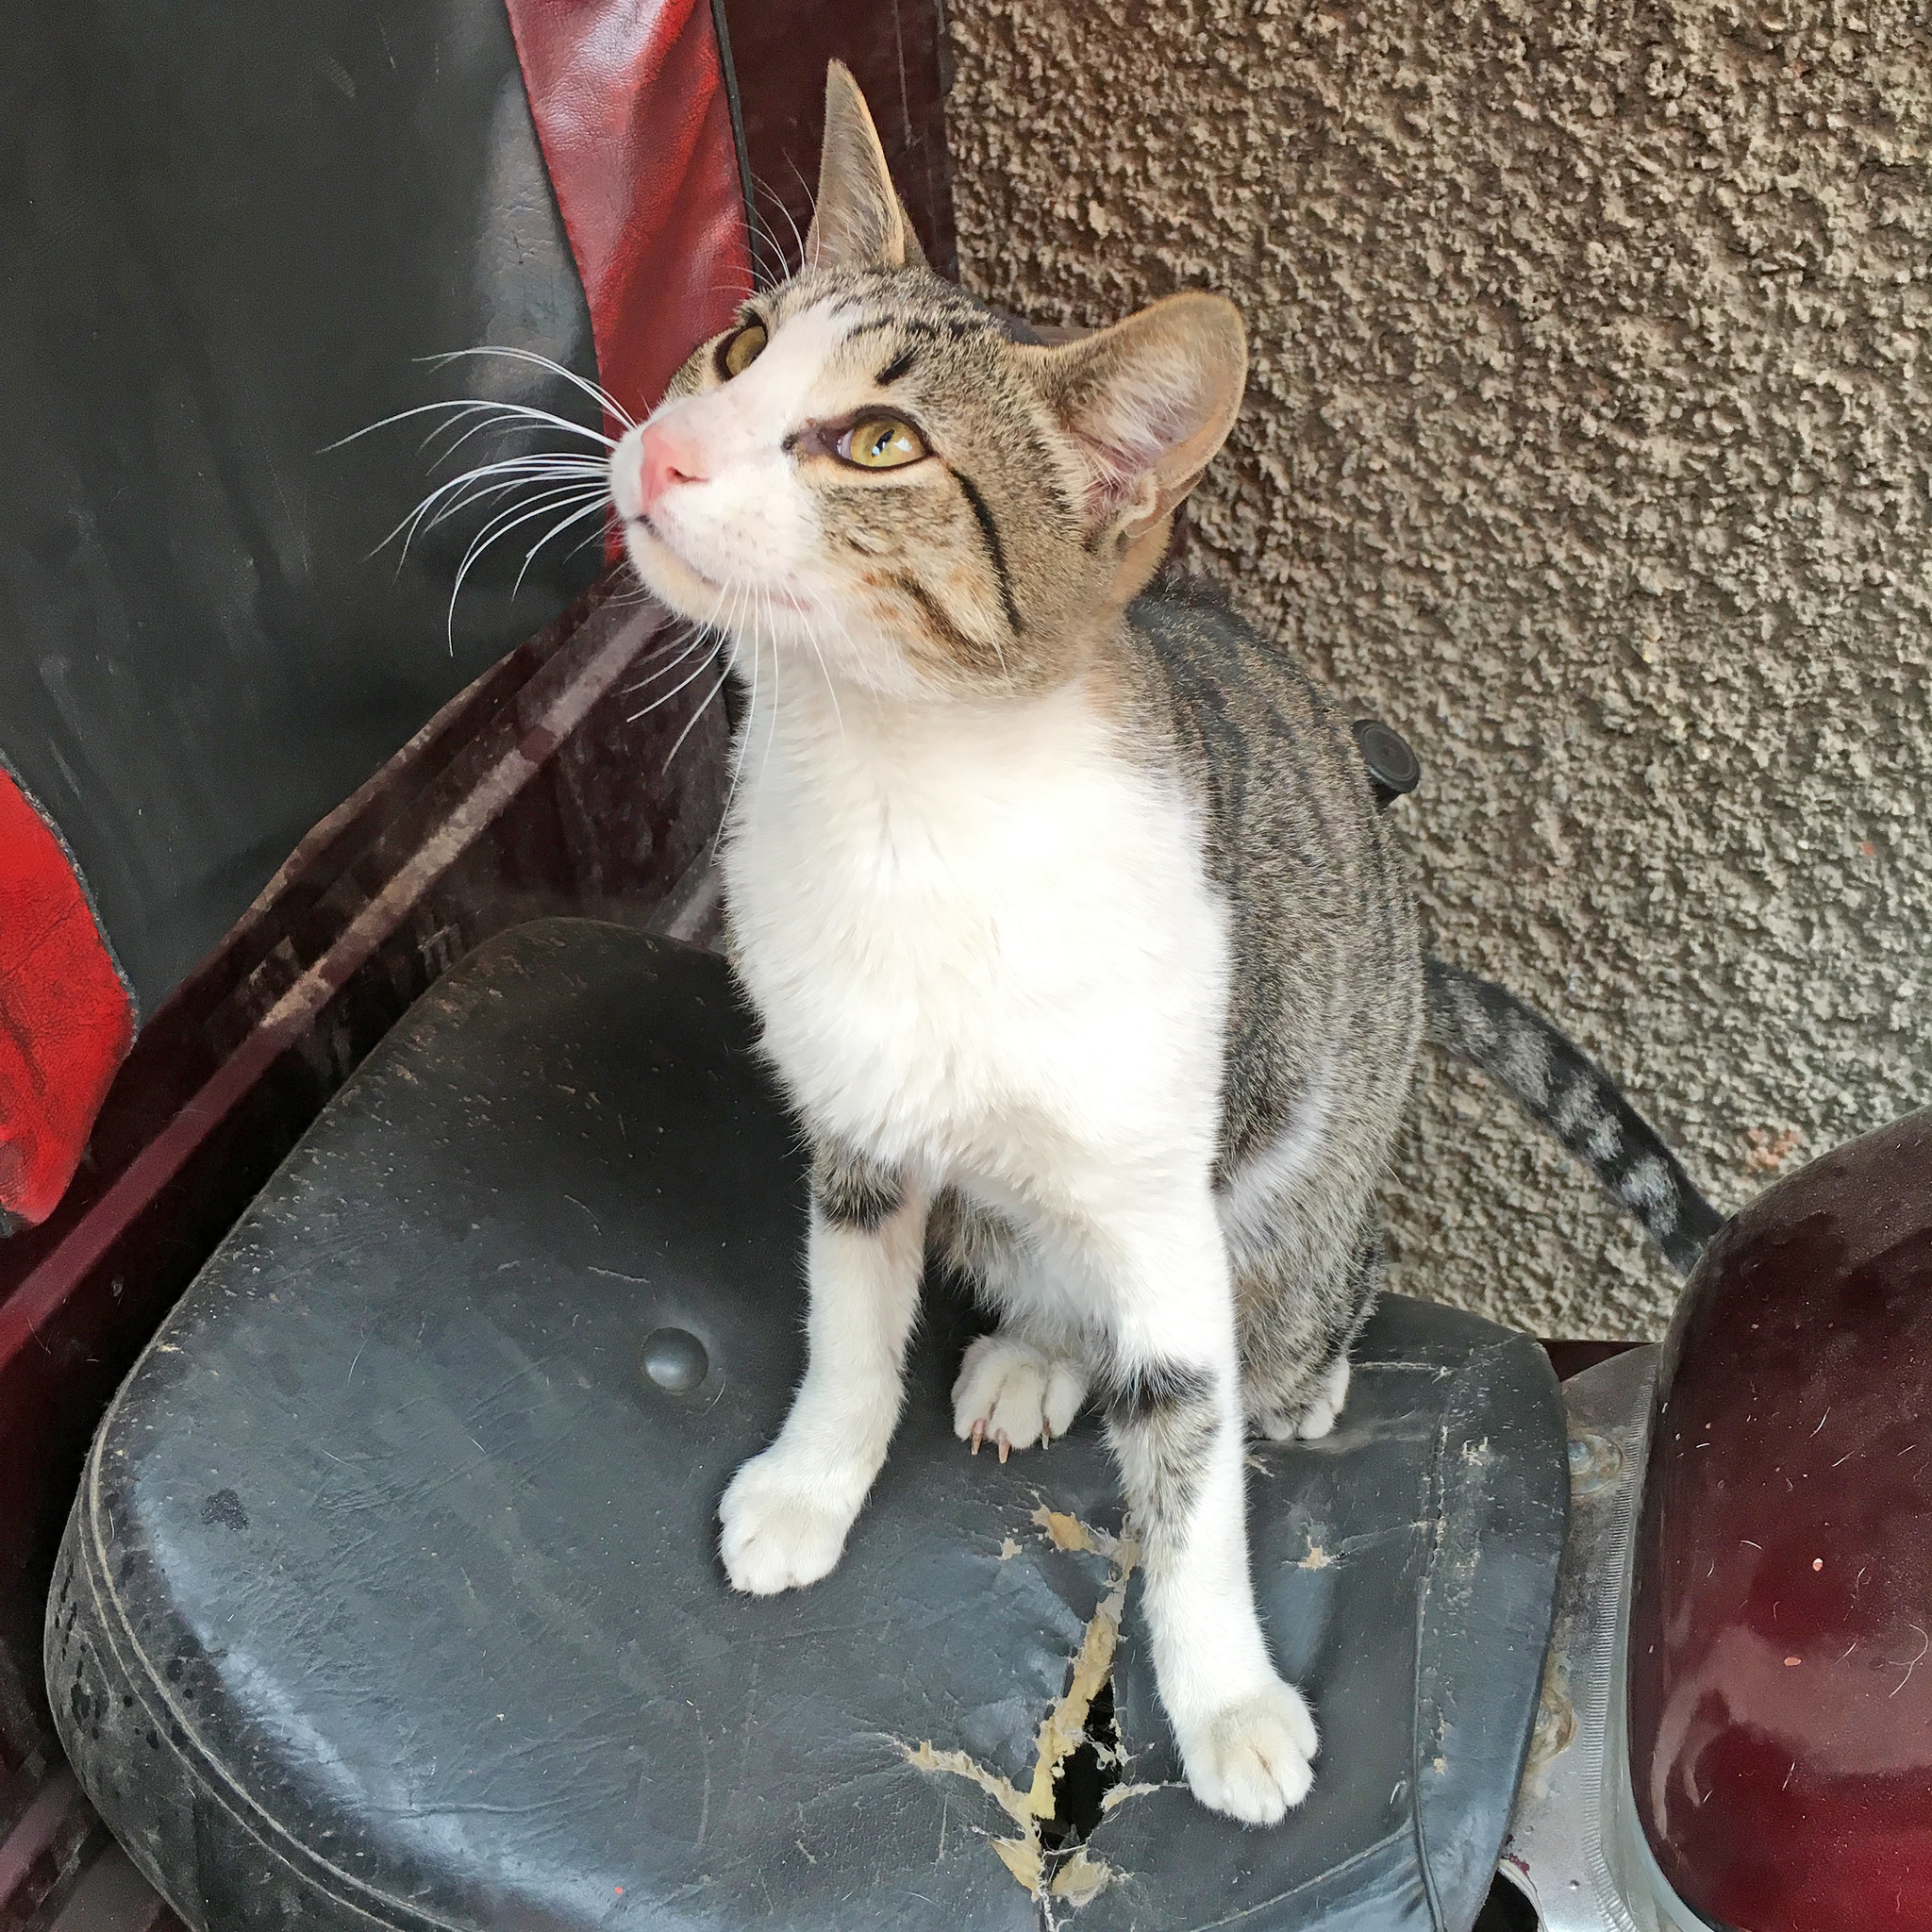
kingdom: Animalia
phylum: Chordata
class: Mammalia
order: Carnivora
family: Felidae
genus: Felis
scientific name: Felis catus
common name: Domestic cat
